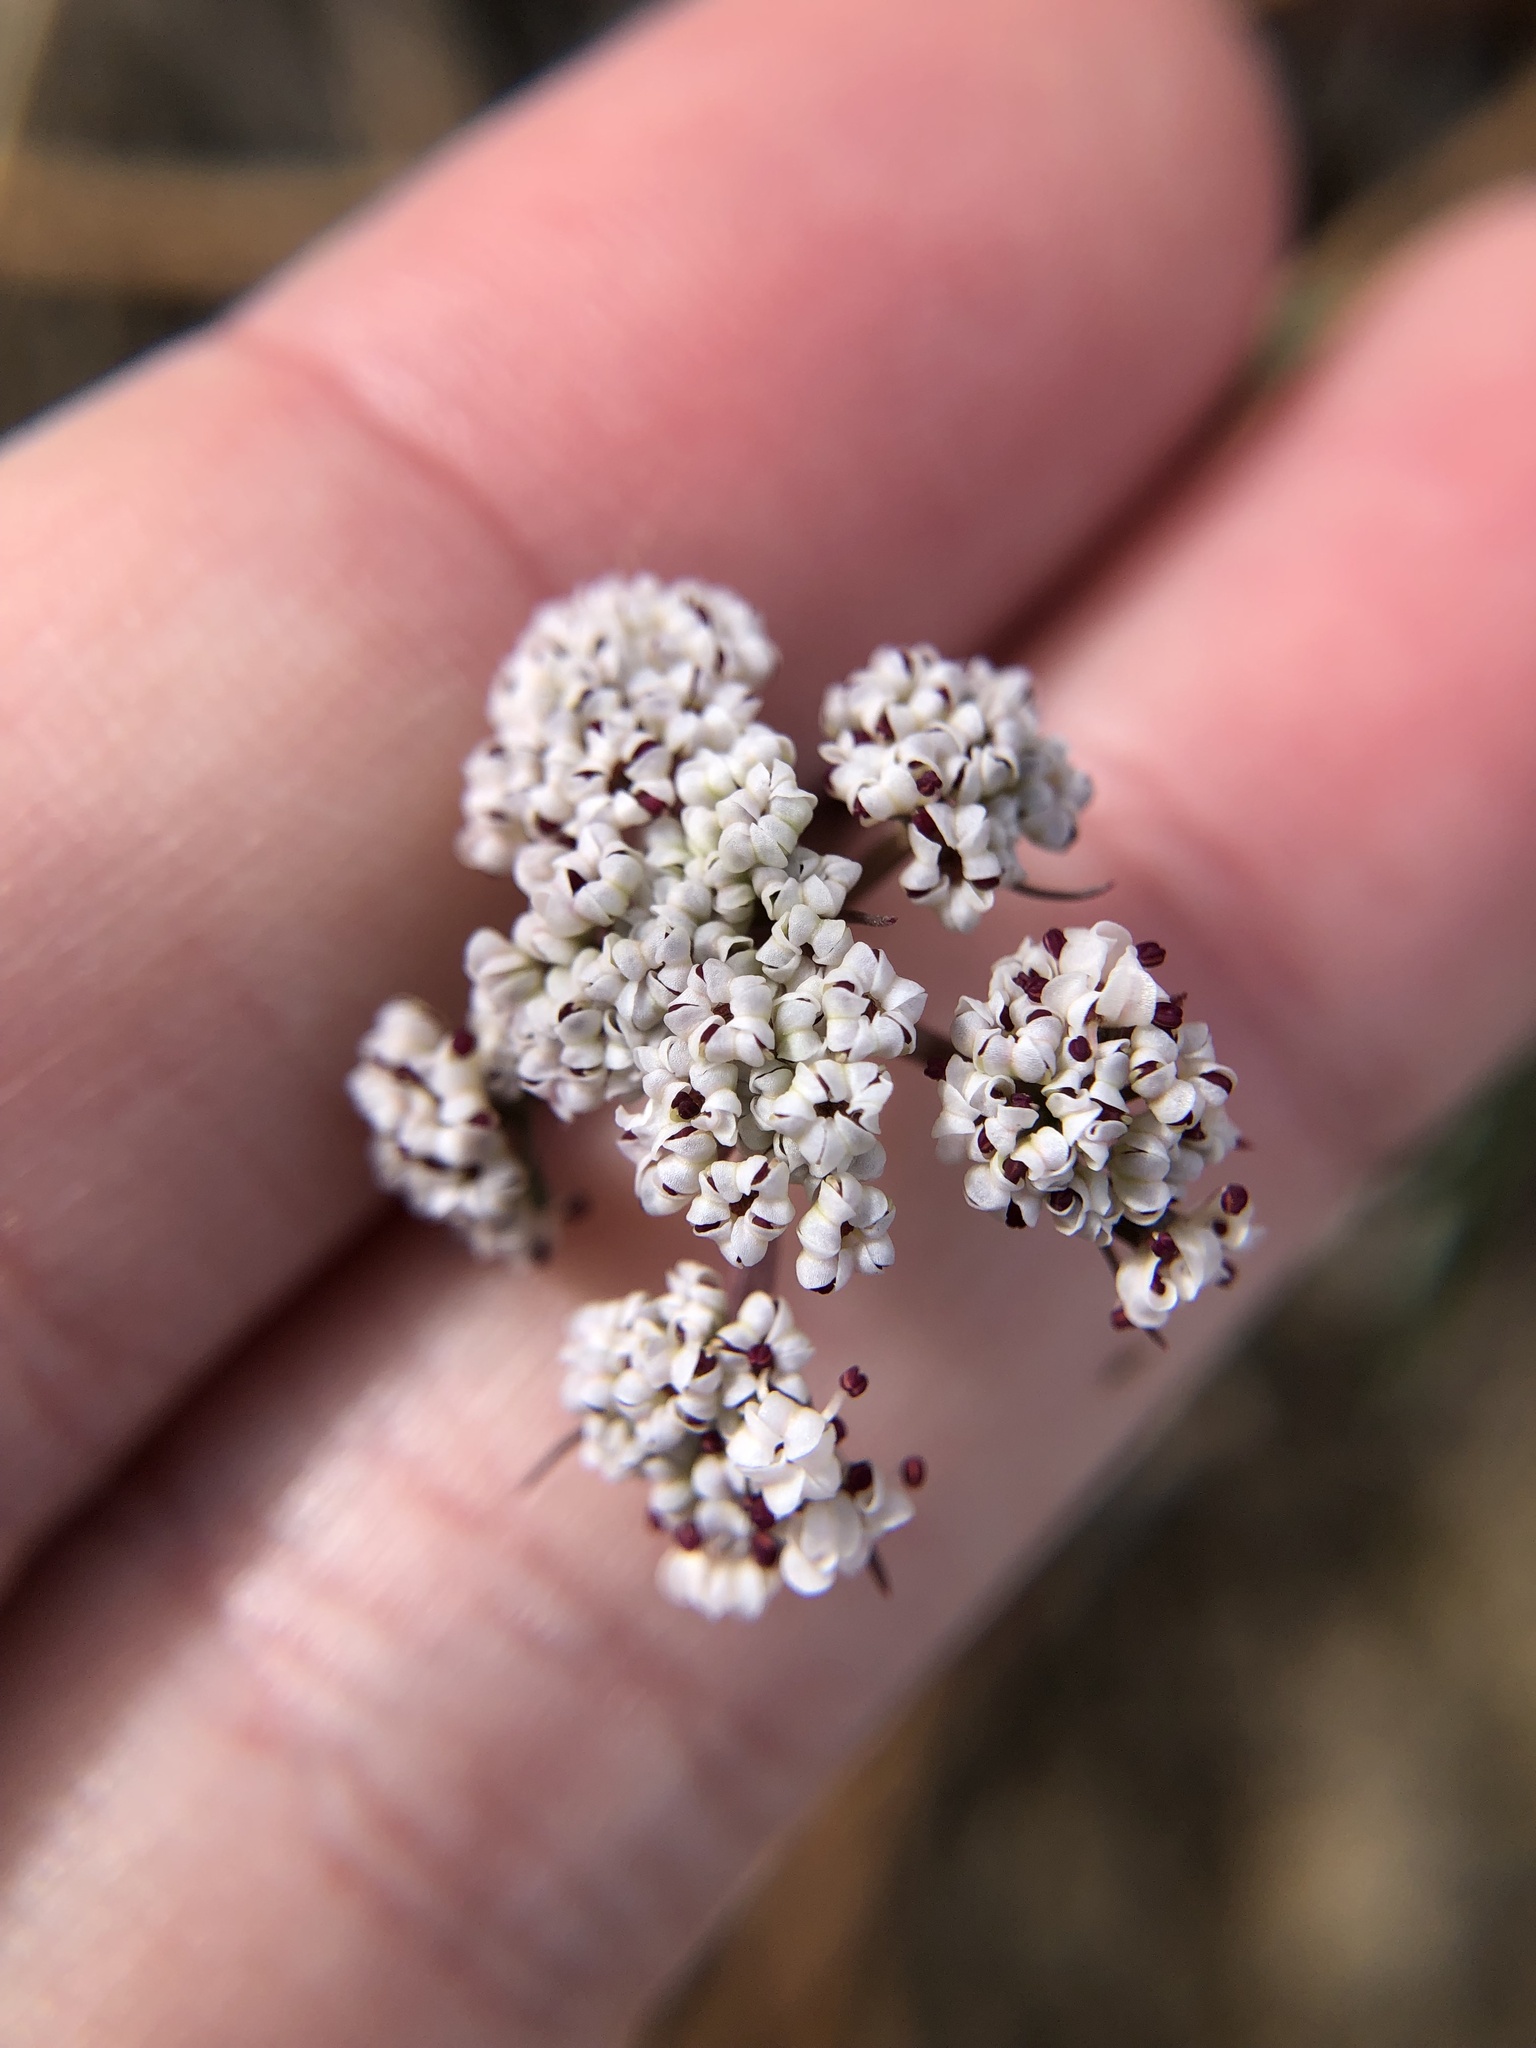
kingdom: Plantae
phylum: Tracheophyta
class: Magnoliopsida
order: Apiales
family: Apiaceae
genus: Lomatium
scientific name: Lomatium geyeri
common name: Geyer's biscuitroot
